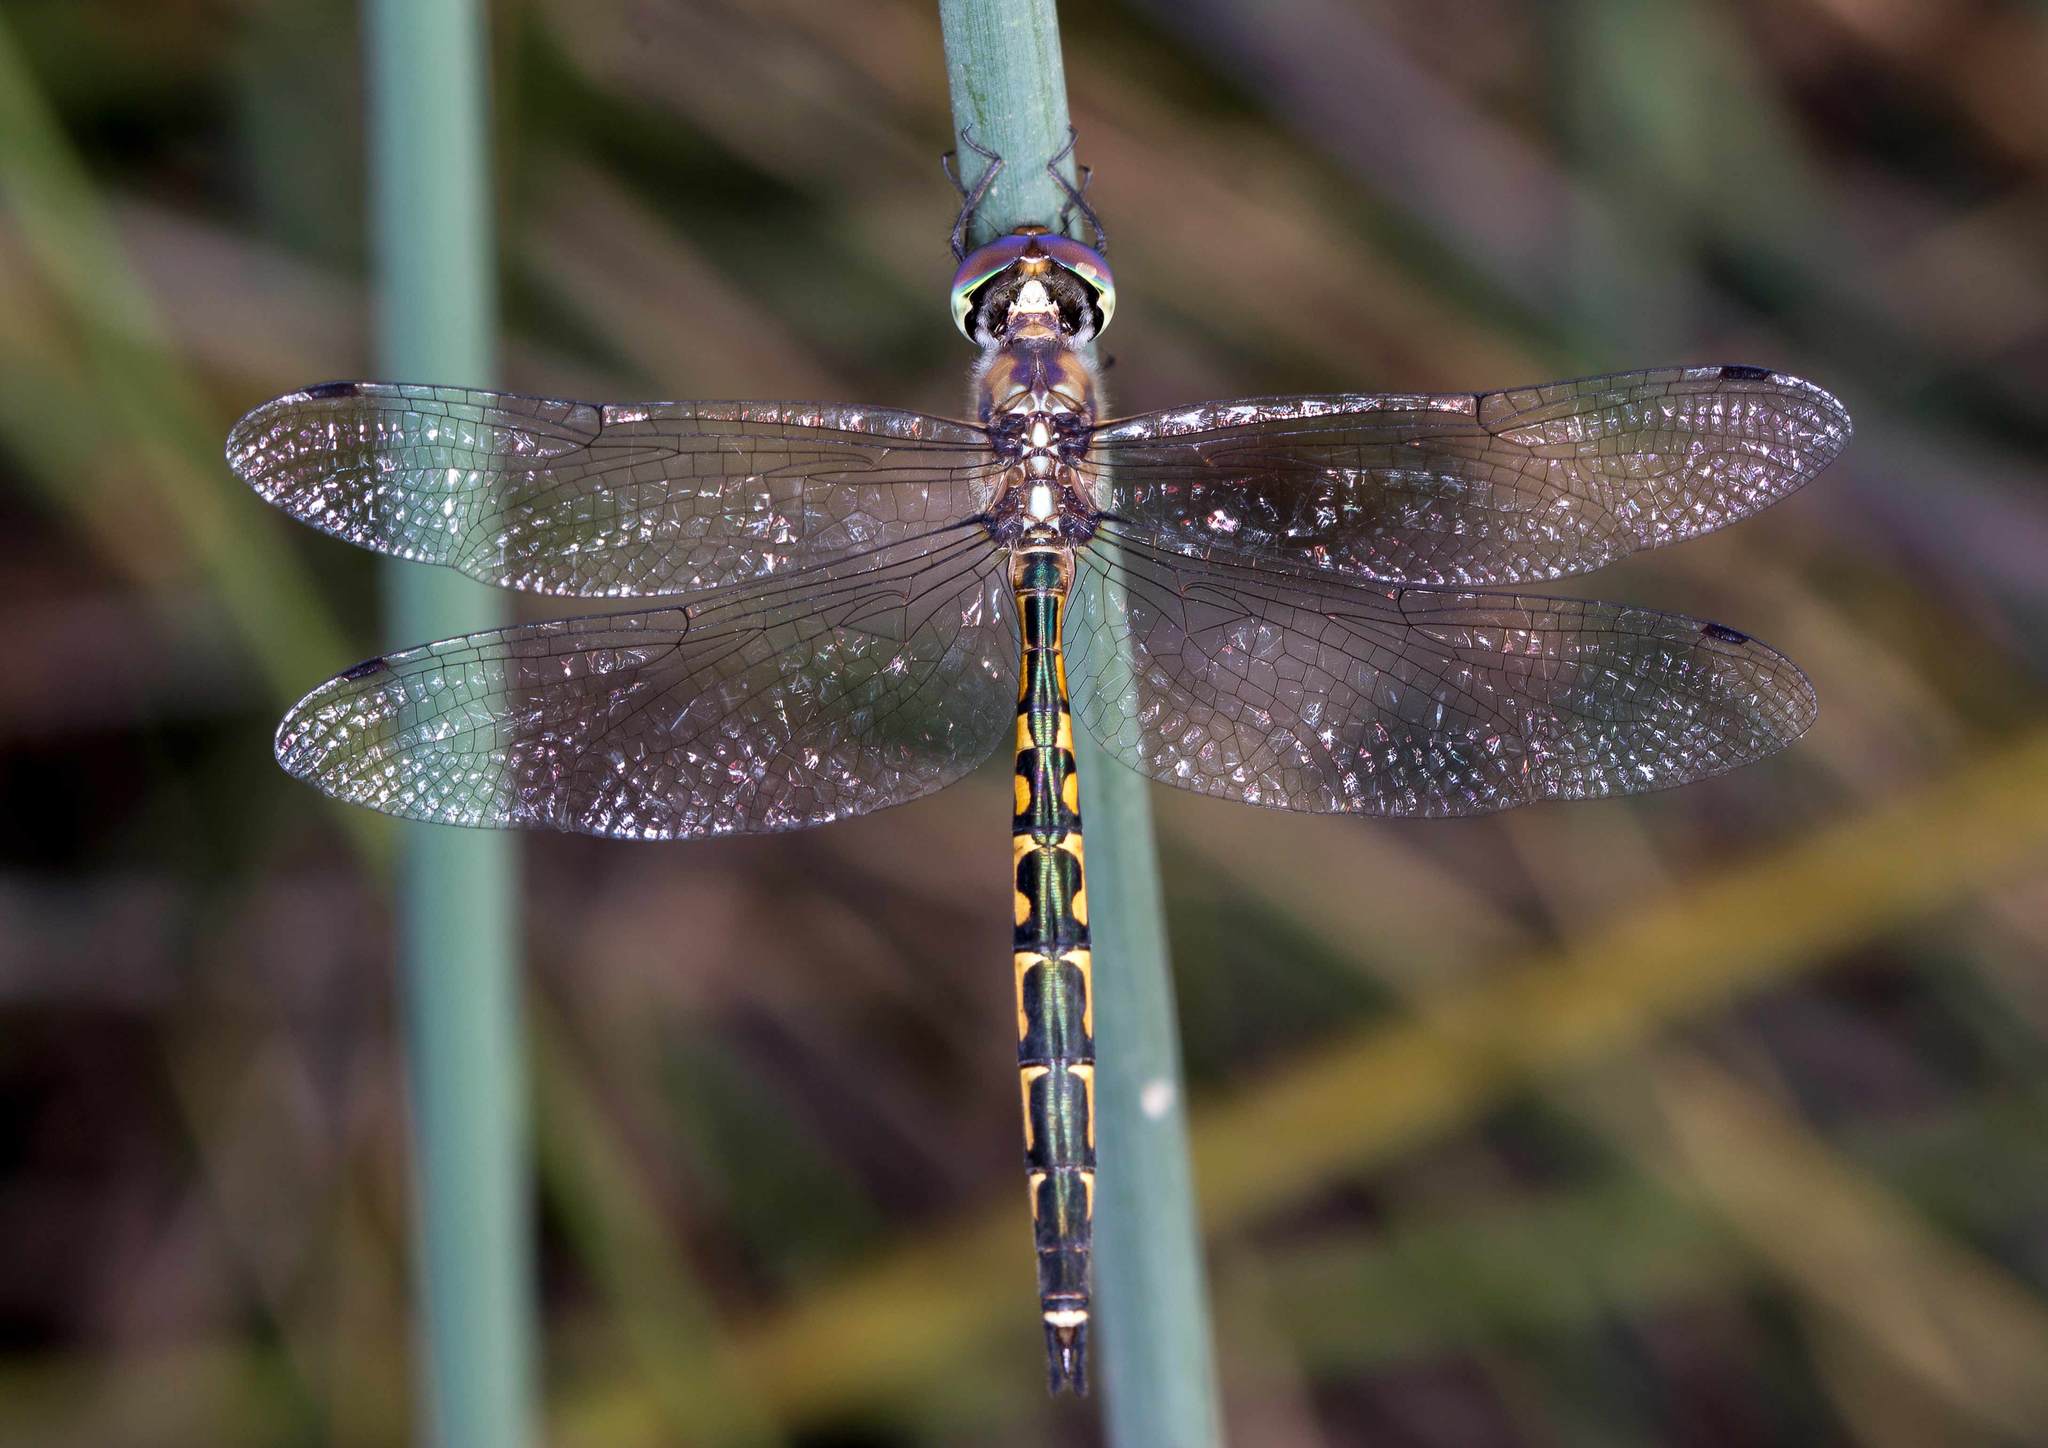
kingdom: Animalia
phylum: Arthropoda
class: Insecta
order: Odonata
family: Corduliidae
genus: Hemicordulia
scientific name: Hemicordulia australiae
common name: Sentry dragonfly
